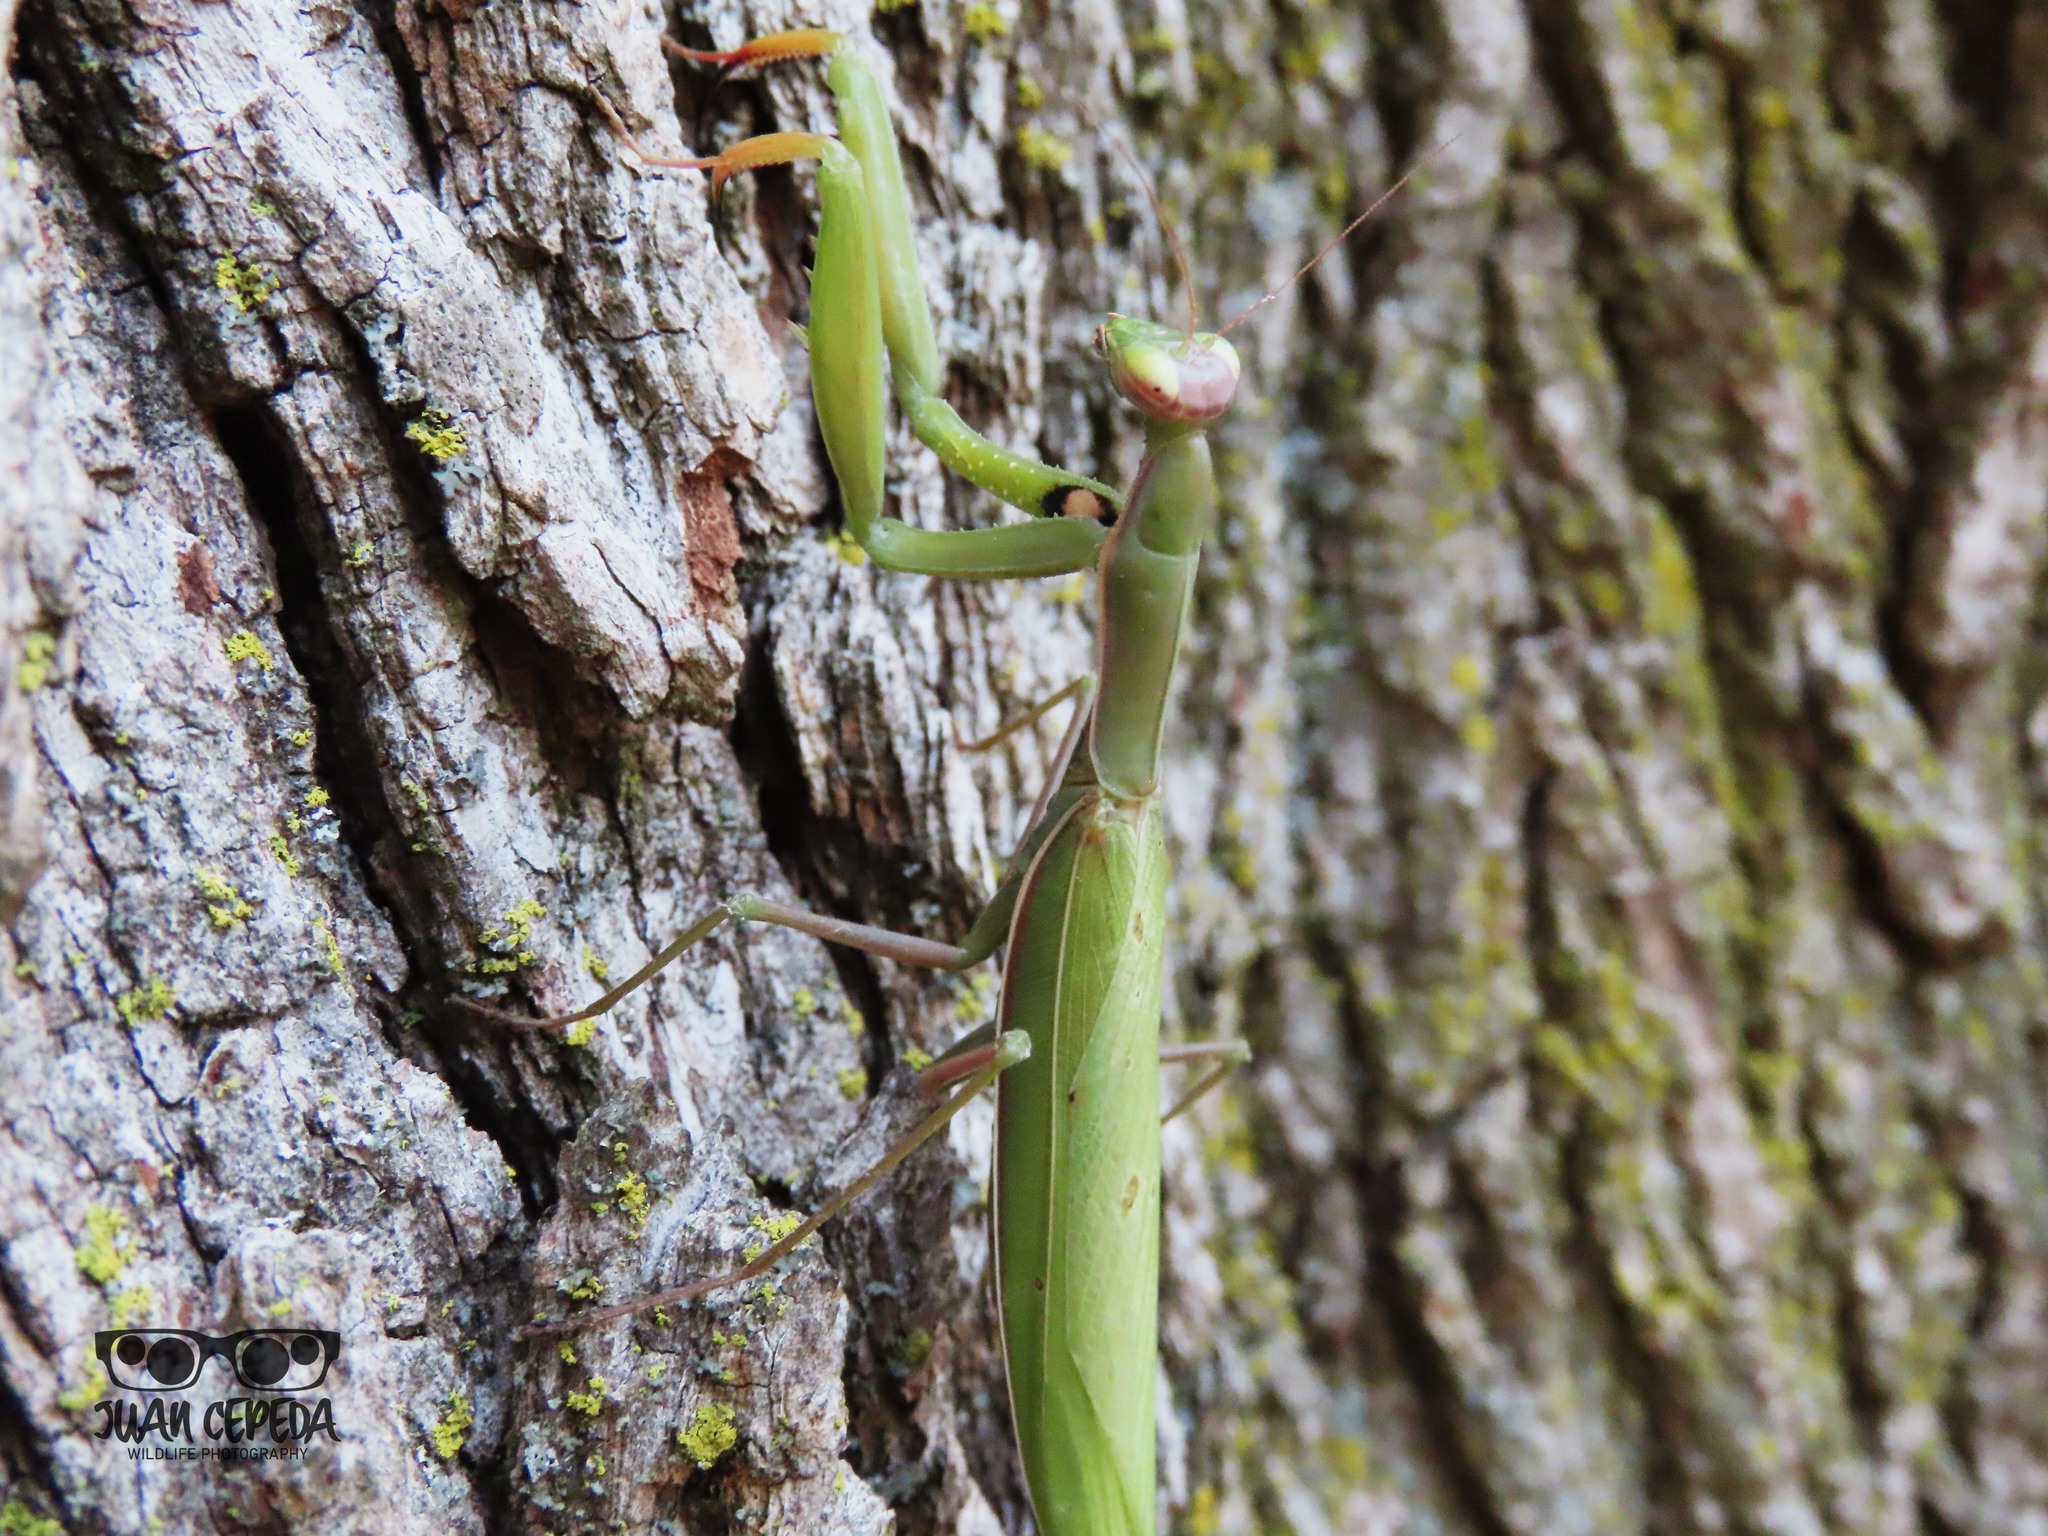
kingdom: Animalia
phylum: Arthropoda
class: Insecta
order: Mantodea
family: Mantidae
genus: Mantis
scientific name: Mantis religiosa
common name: Praying mantis
